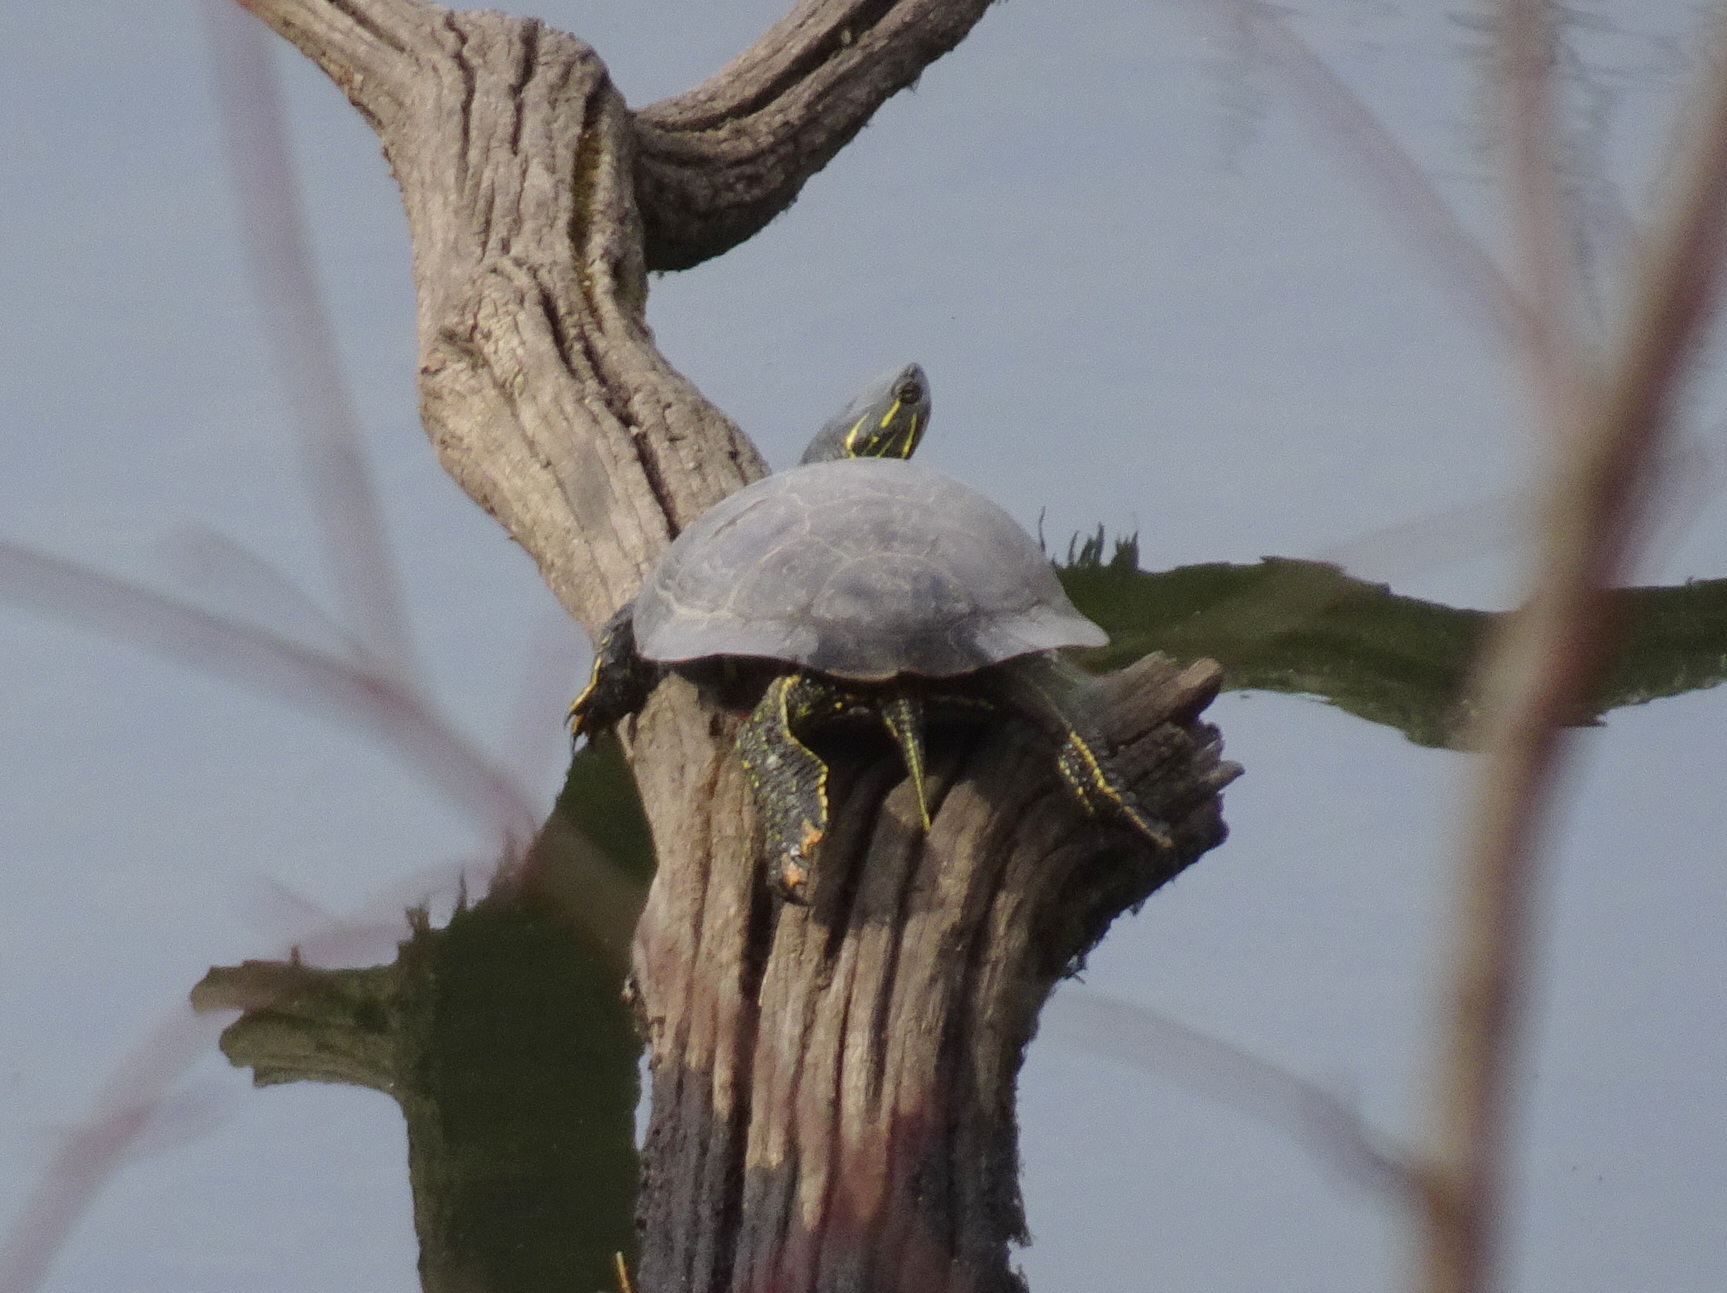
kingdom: Animalia
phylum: Chordata
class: Testudines
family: Emydidae
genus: Chrysemys
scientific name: Chrysemys picta
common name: Painted turtle
